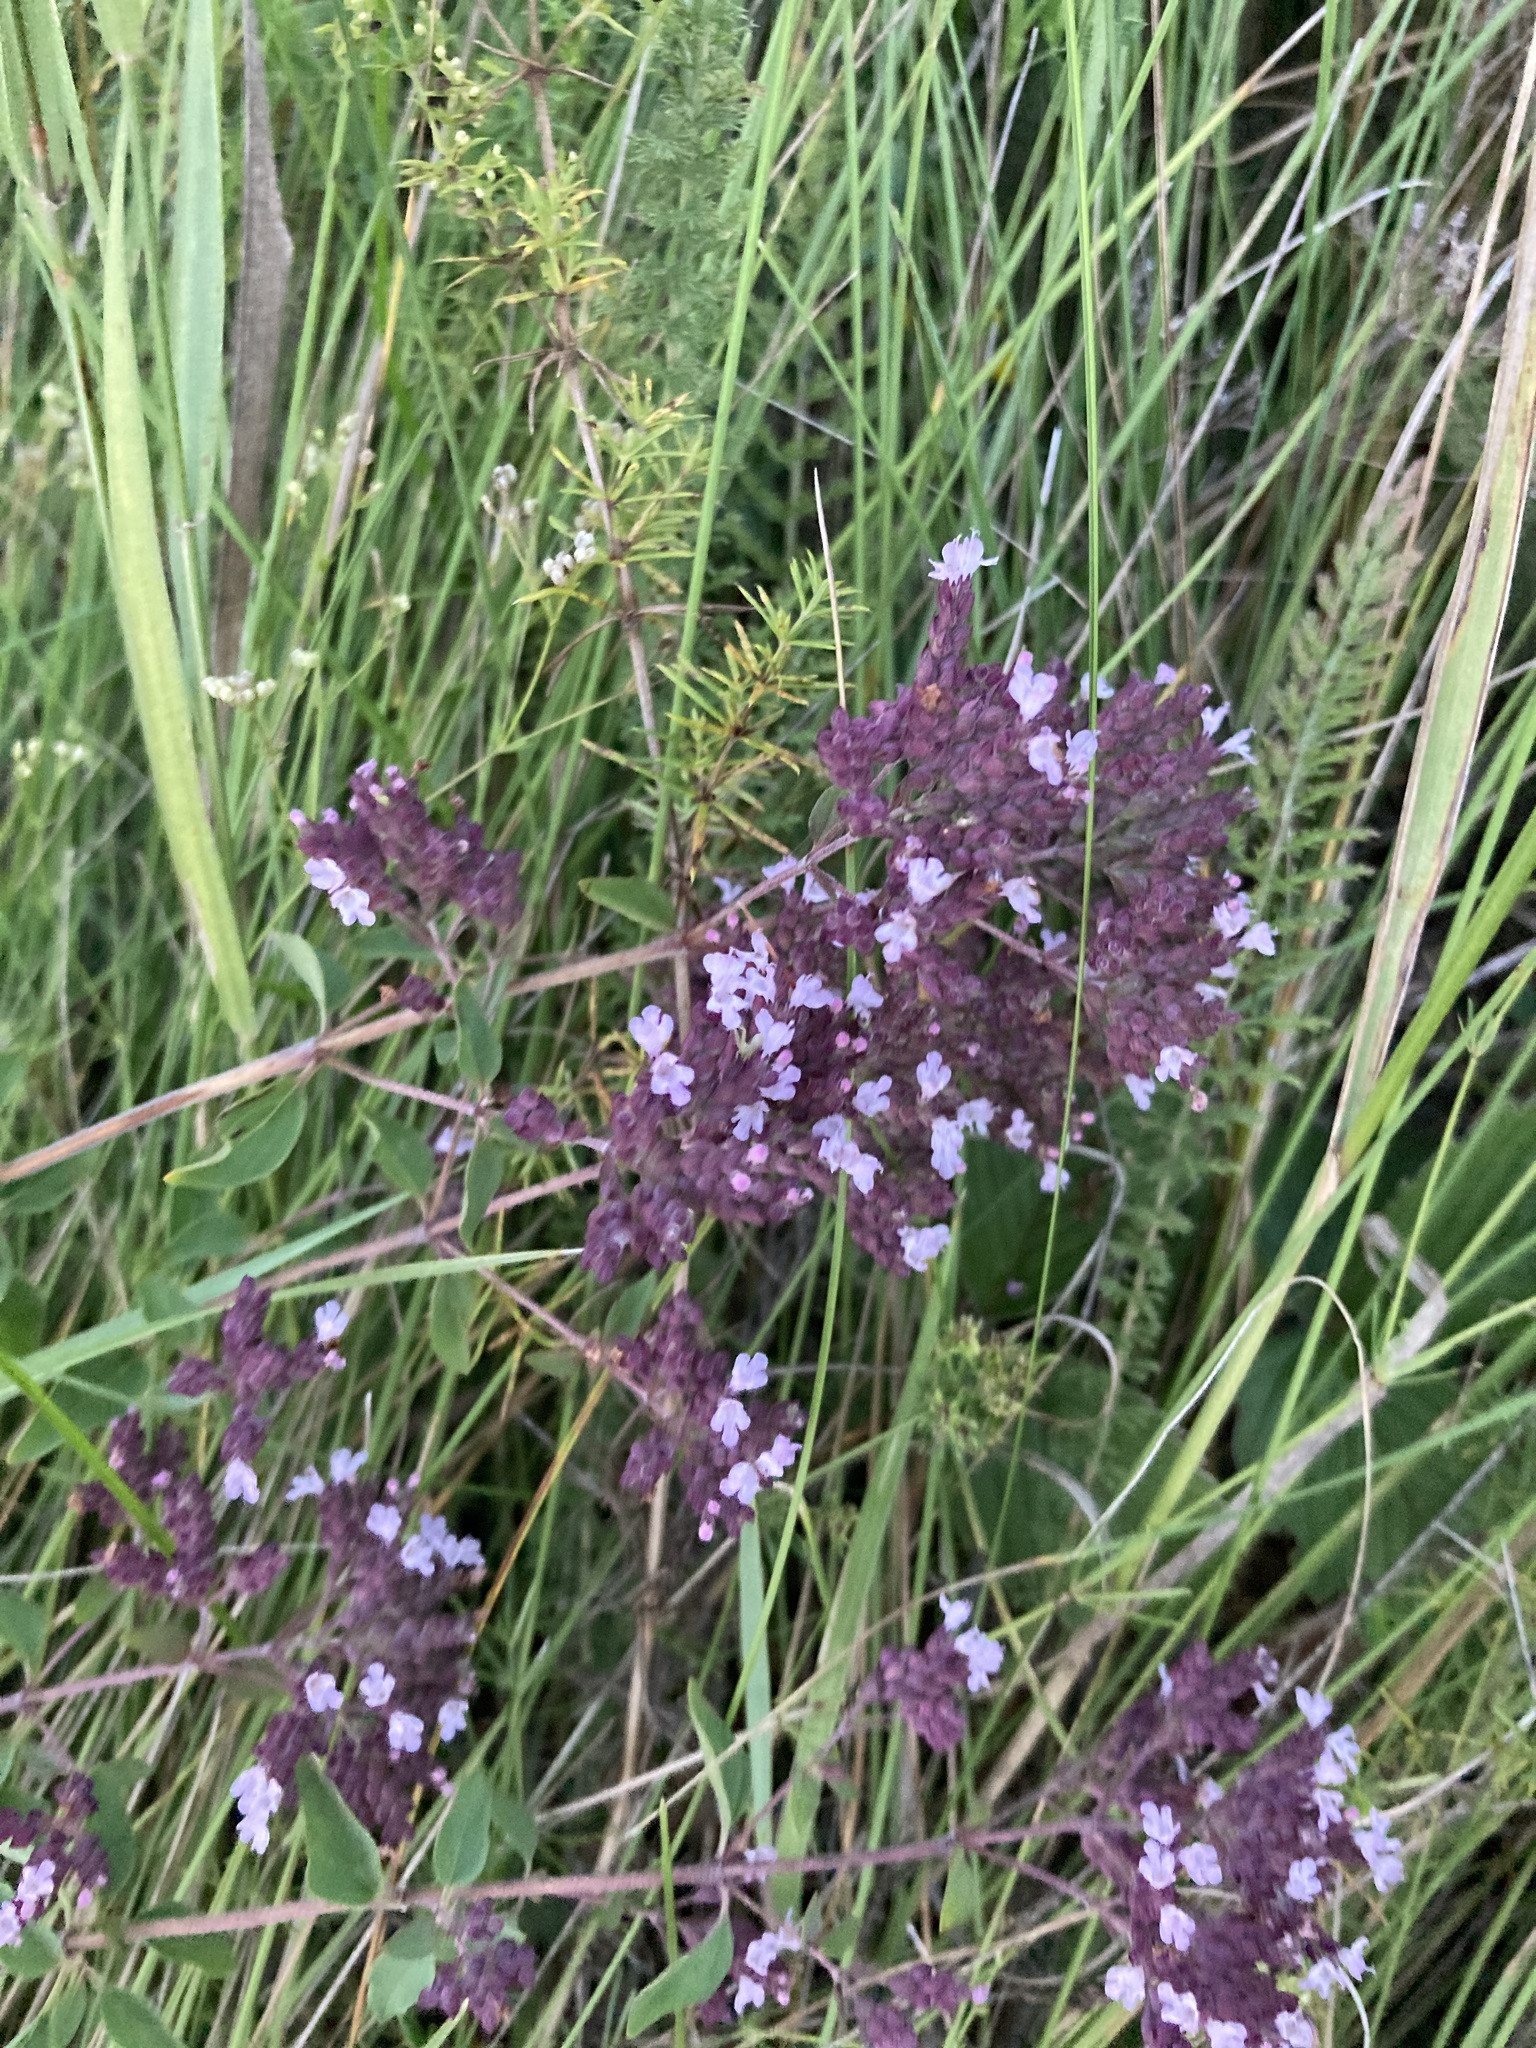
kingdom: Plantae
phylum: Tracheophyta
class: Magnoliopsida
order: Lamiales
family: Lamiaceae
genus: Origanum
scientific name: Origanum vulgare
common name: Wild marjoram
